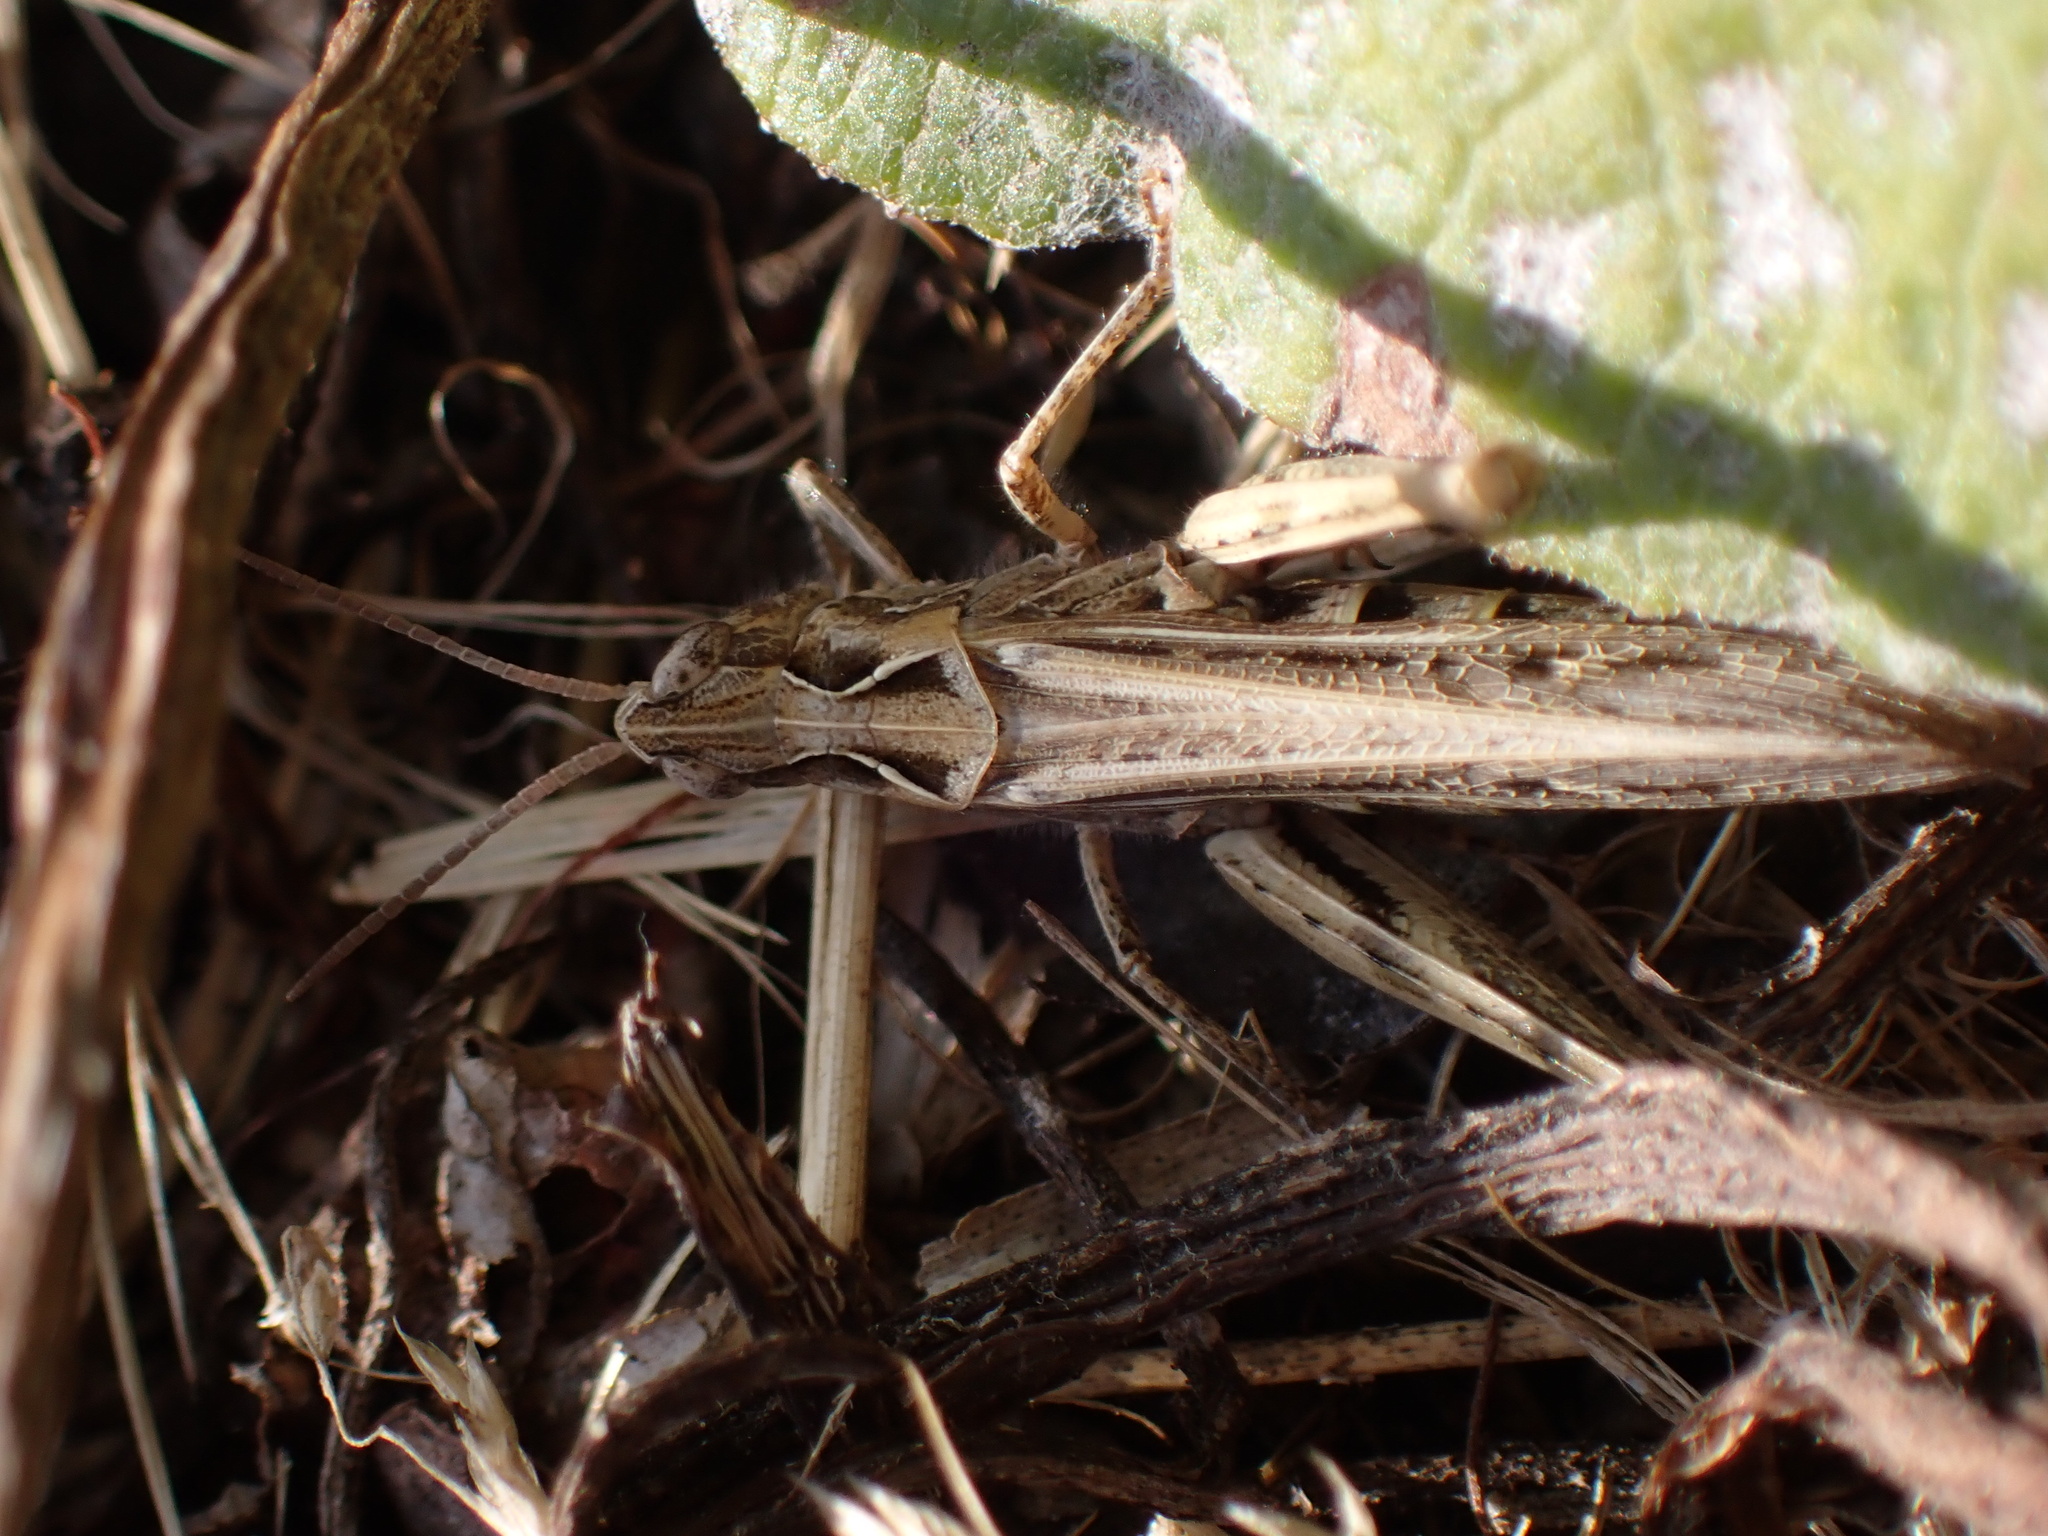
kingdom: Animalia
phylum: Arthropoda
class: Insecta
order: Orthoptera
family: Acrididae
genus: Chorthippus
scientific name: Chorthippus brunneus
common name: Field grasshopper
